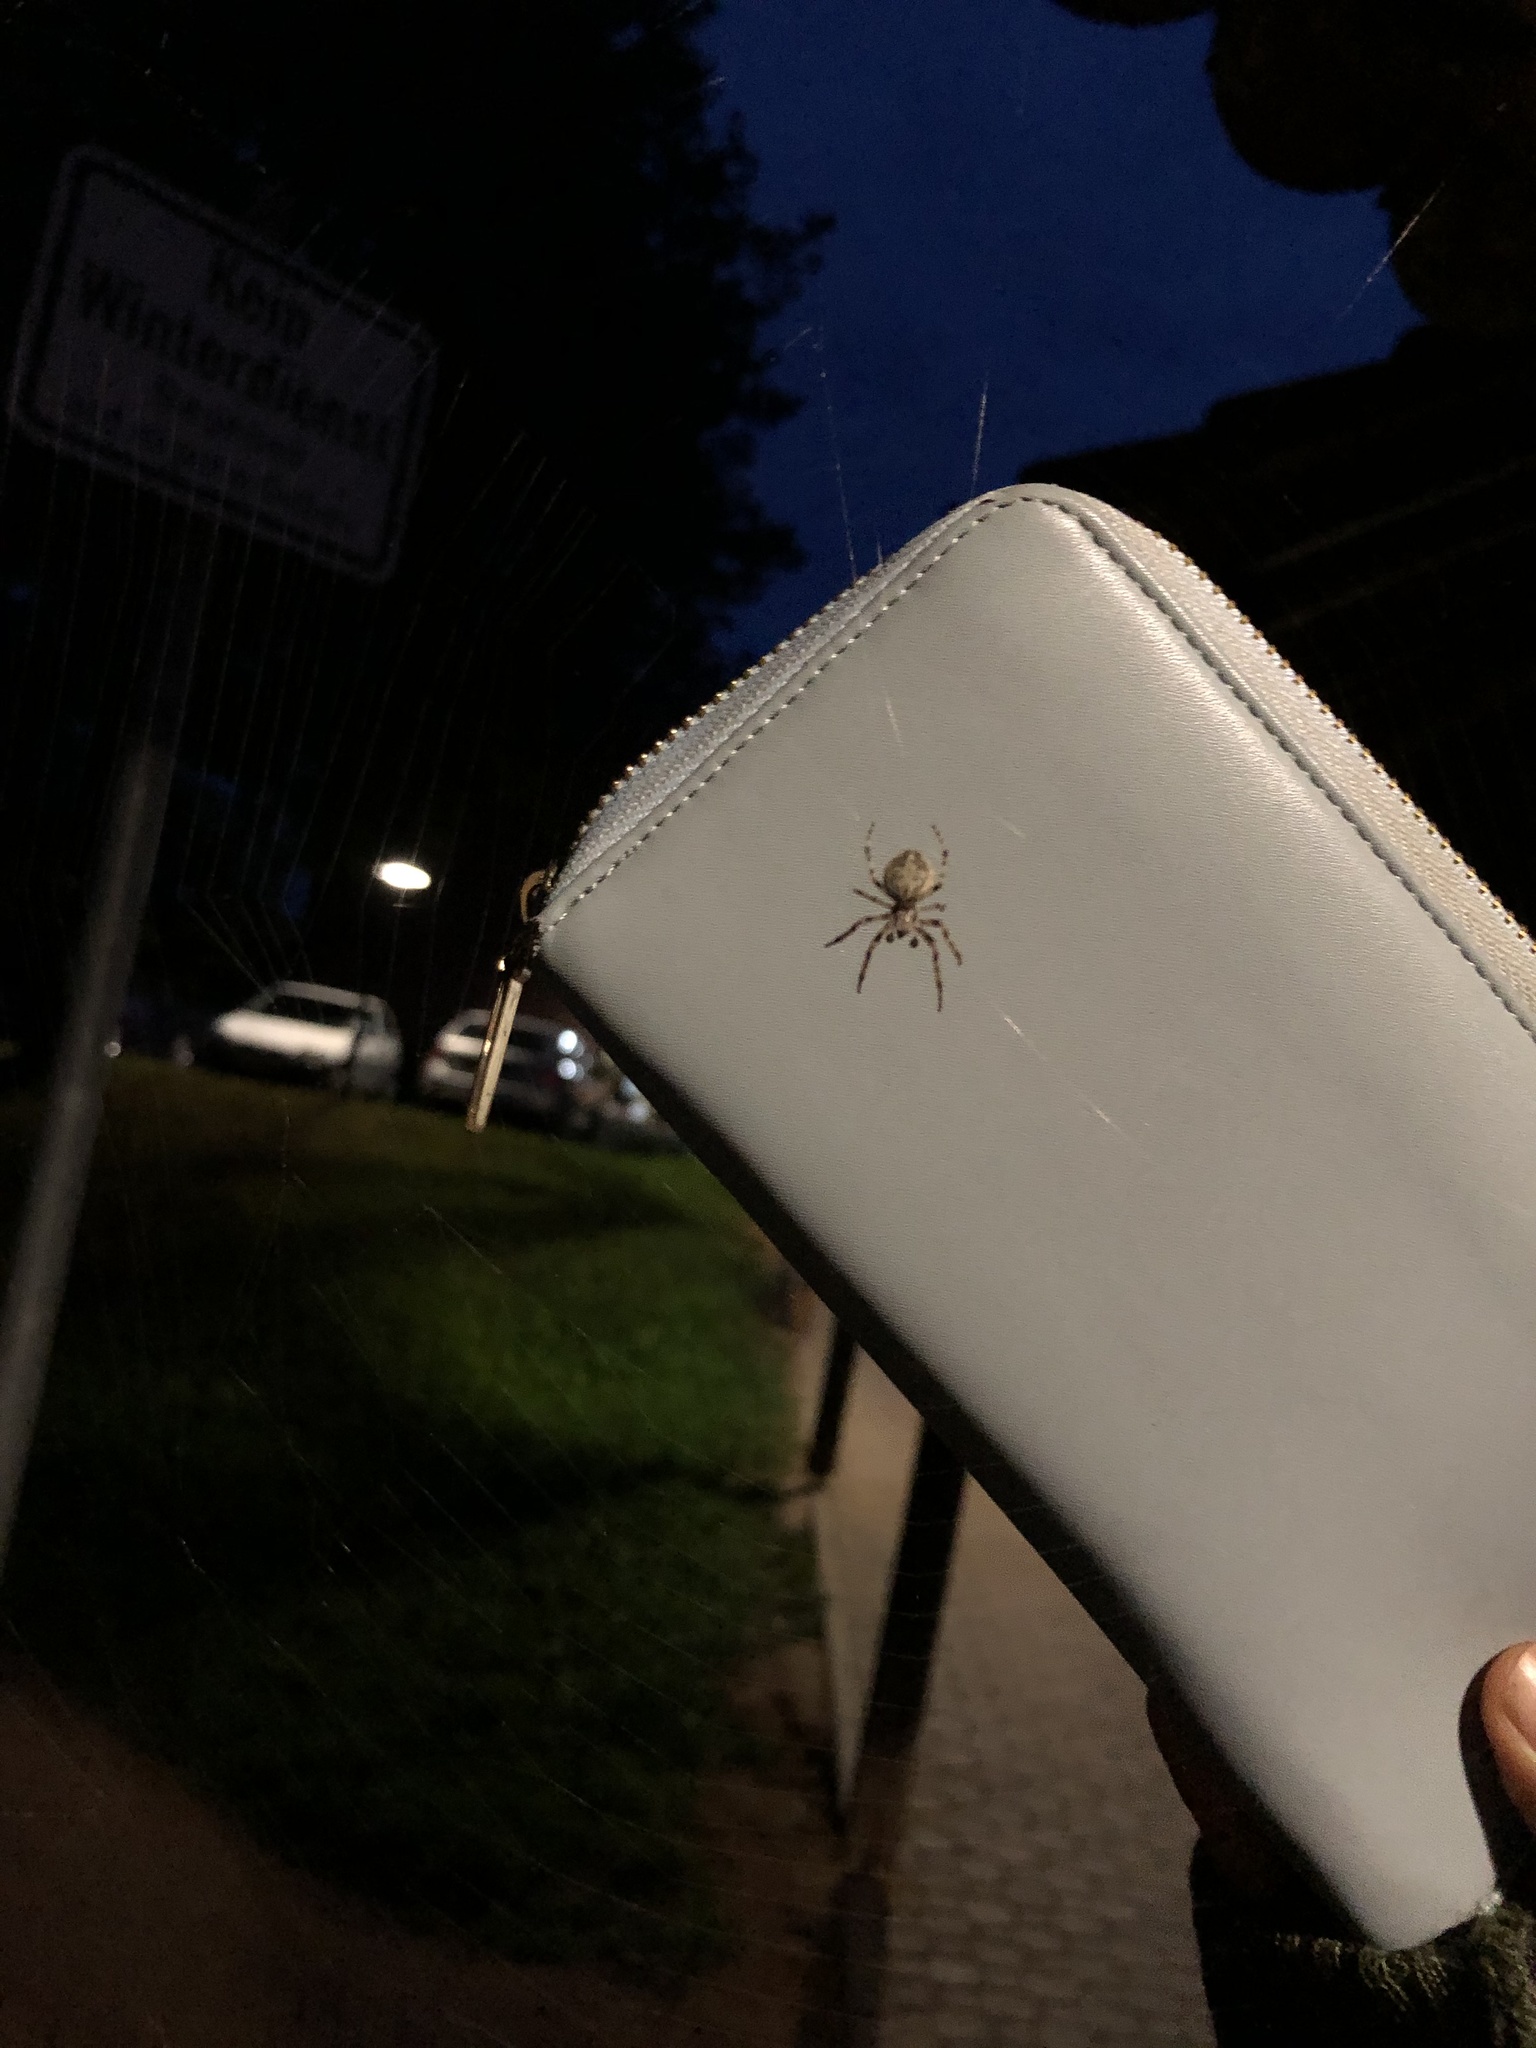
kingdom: Animalia
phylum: Arthropoda
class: Arachnida
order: Araneae
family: Araneidae
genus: Larinioides
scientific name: Larinioides sclopetarius
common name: Bridge orbweaver
